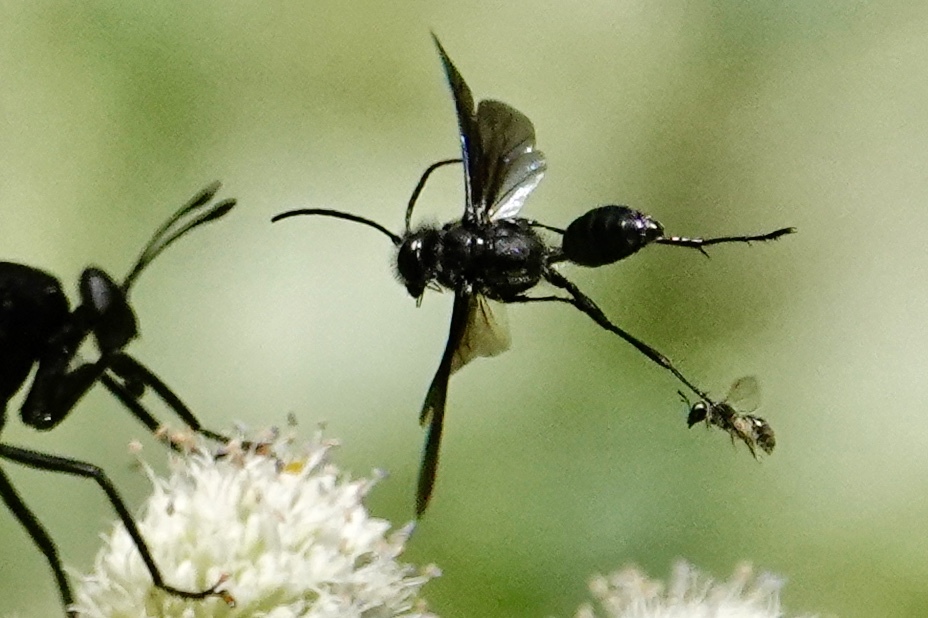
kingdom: Animalia
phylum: Arthropoda
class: Insecta
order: Hymenoptera
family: Sphecidae
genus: Isodontia
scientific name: Isodontia mexicana
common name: Mud dauber
